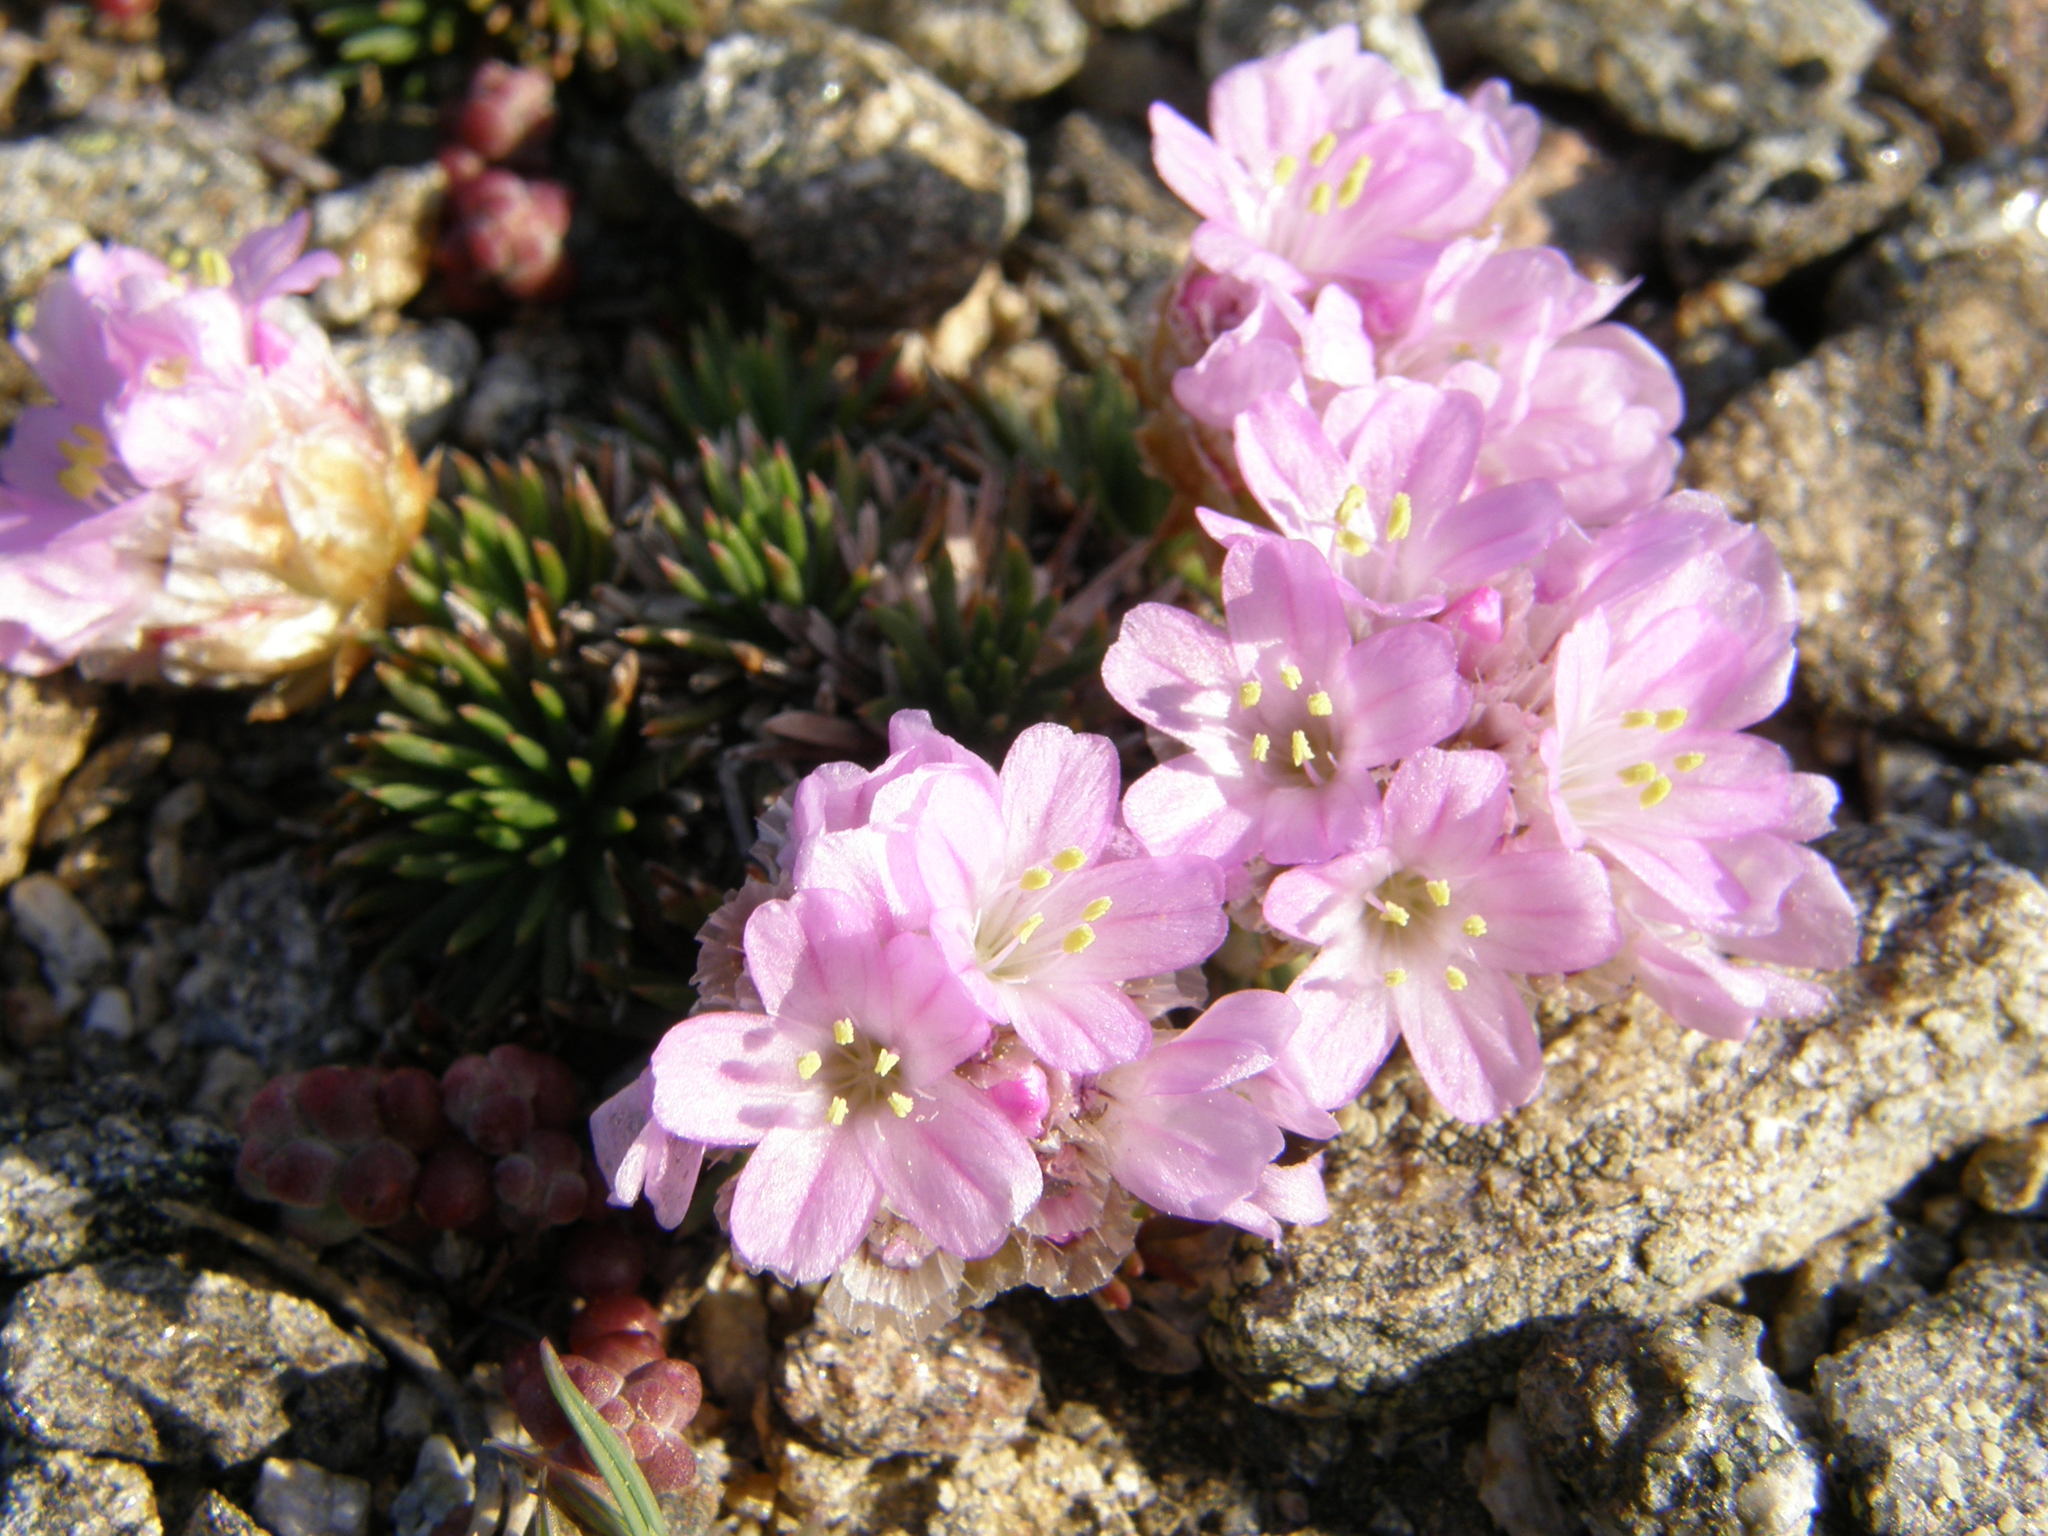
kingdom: Plantae
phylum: Tracheophyta
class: Magnoliopsida
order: Caryophyllales
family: Plumbaginaceae
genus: Armeria
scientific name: Armeria caespitosa
